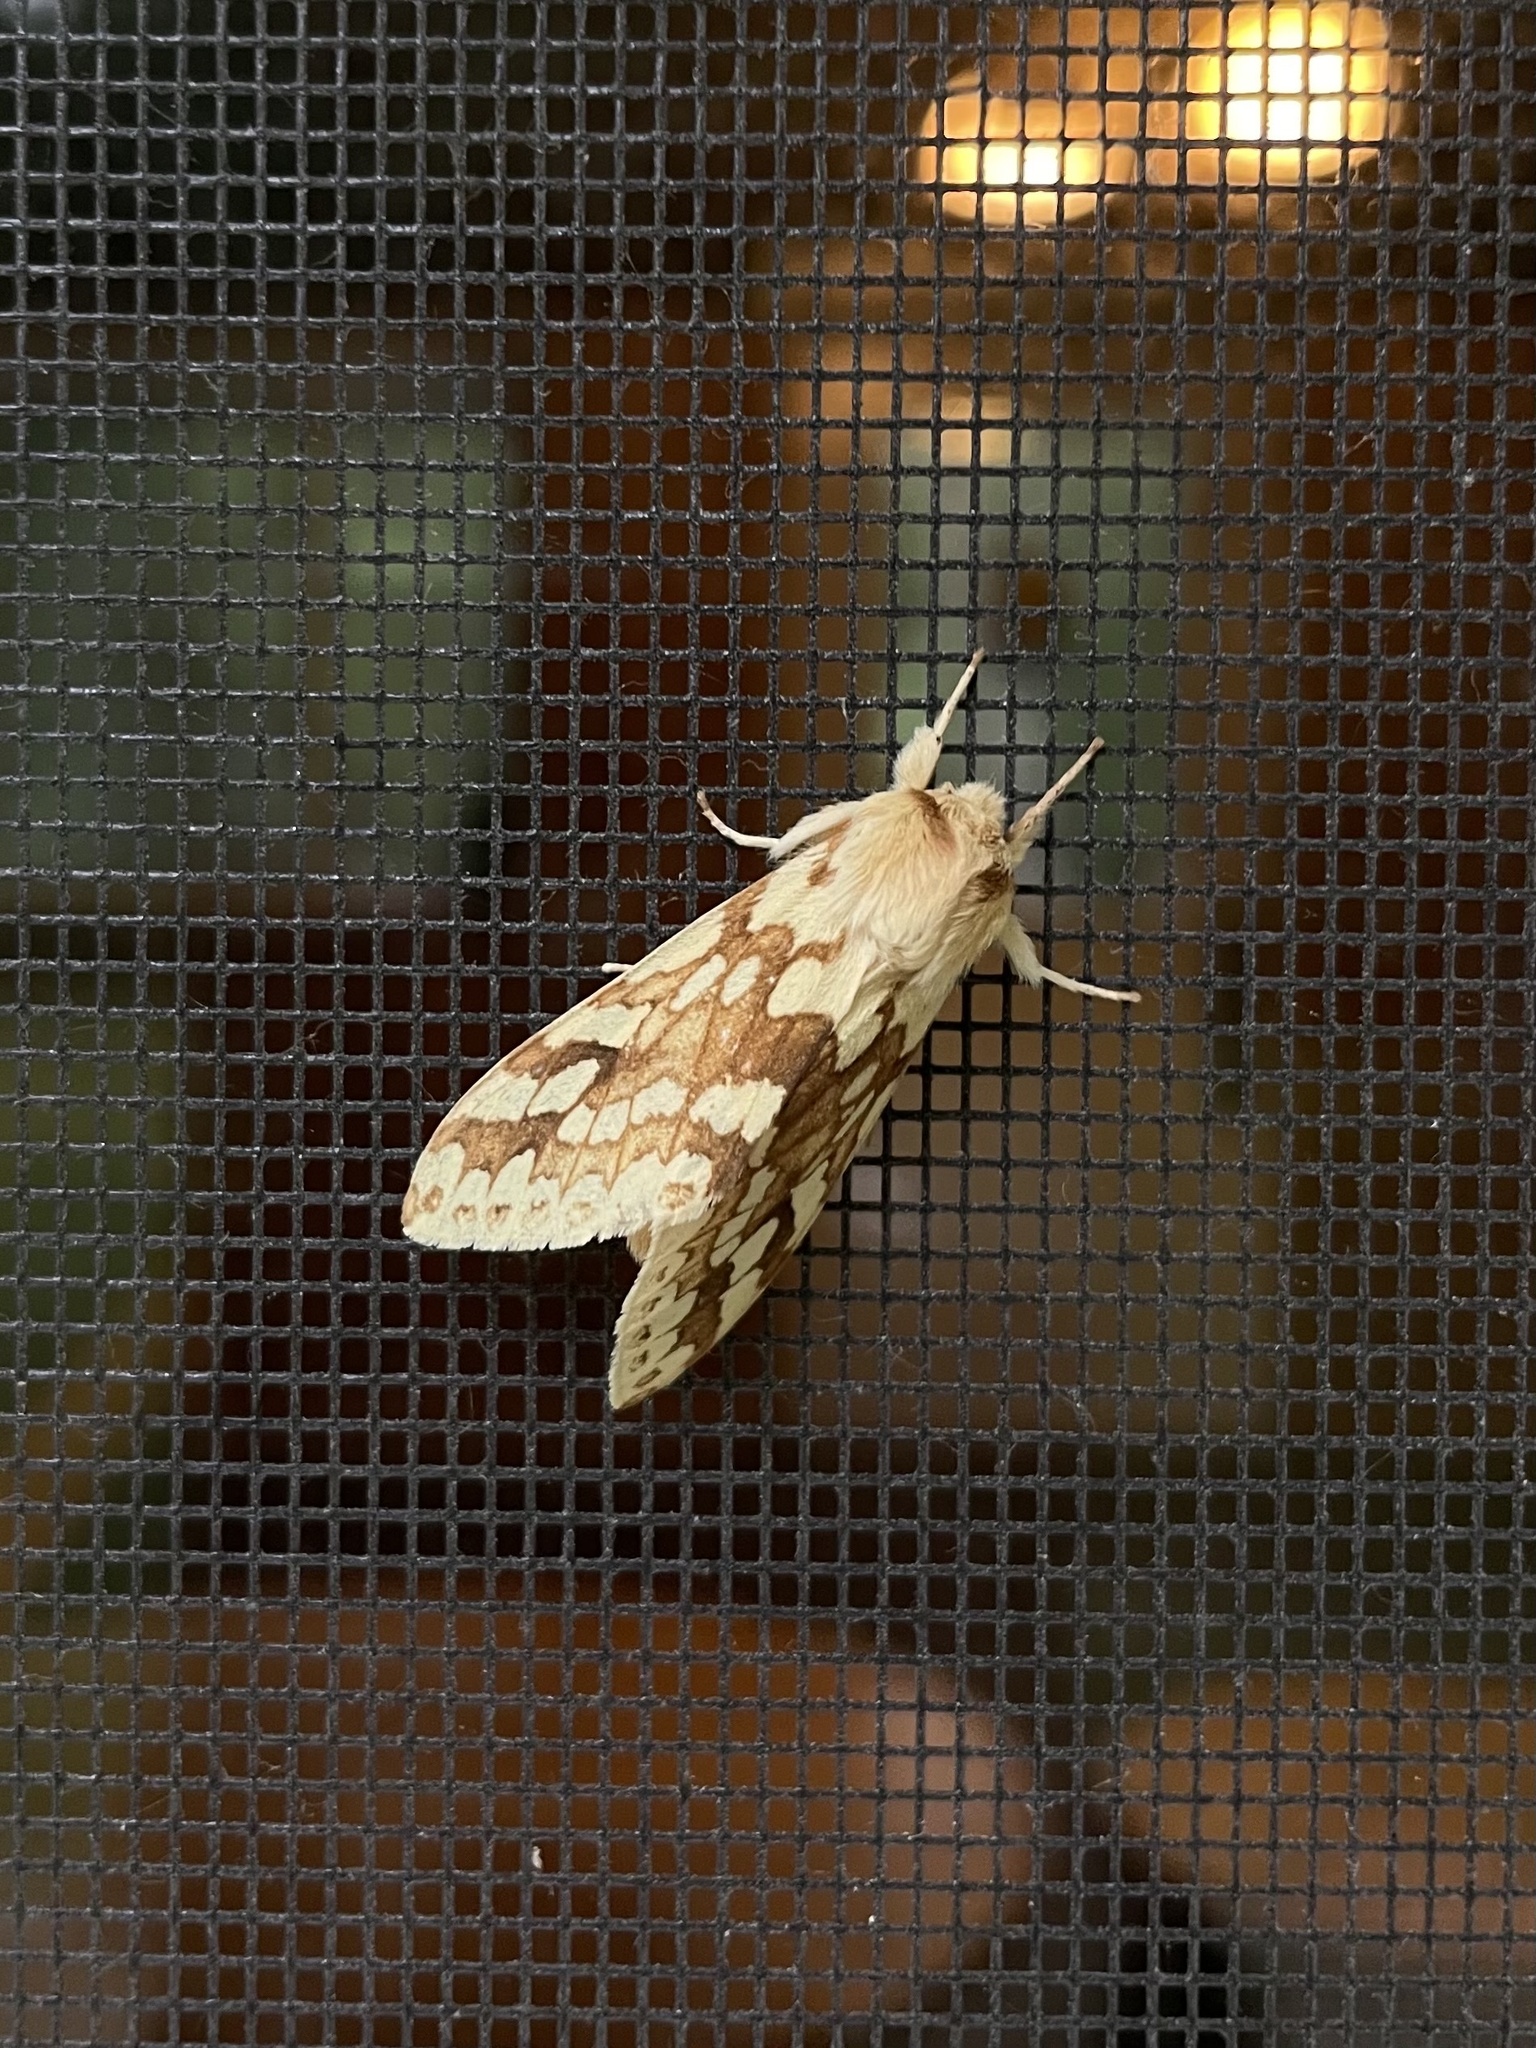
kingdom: Animalia
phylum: Arthropoda
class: Insecta
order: Lepidoptera
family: Erebidae
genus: Lophocampa
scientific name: Lophocampa maculata
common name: Spotted tussock moth
